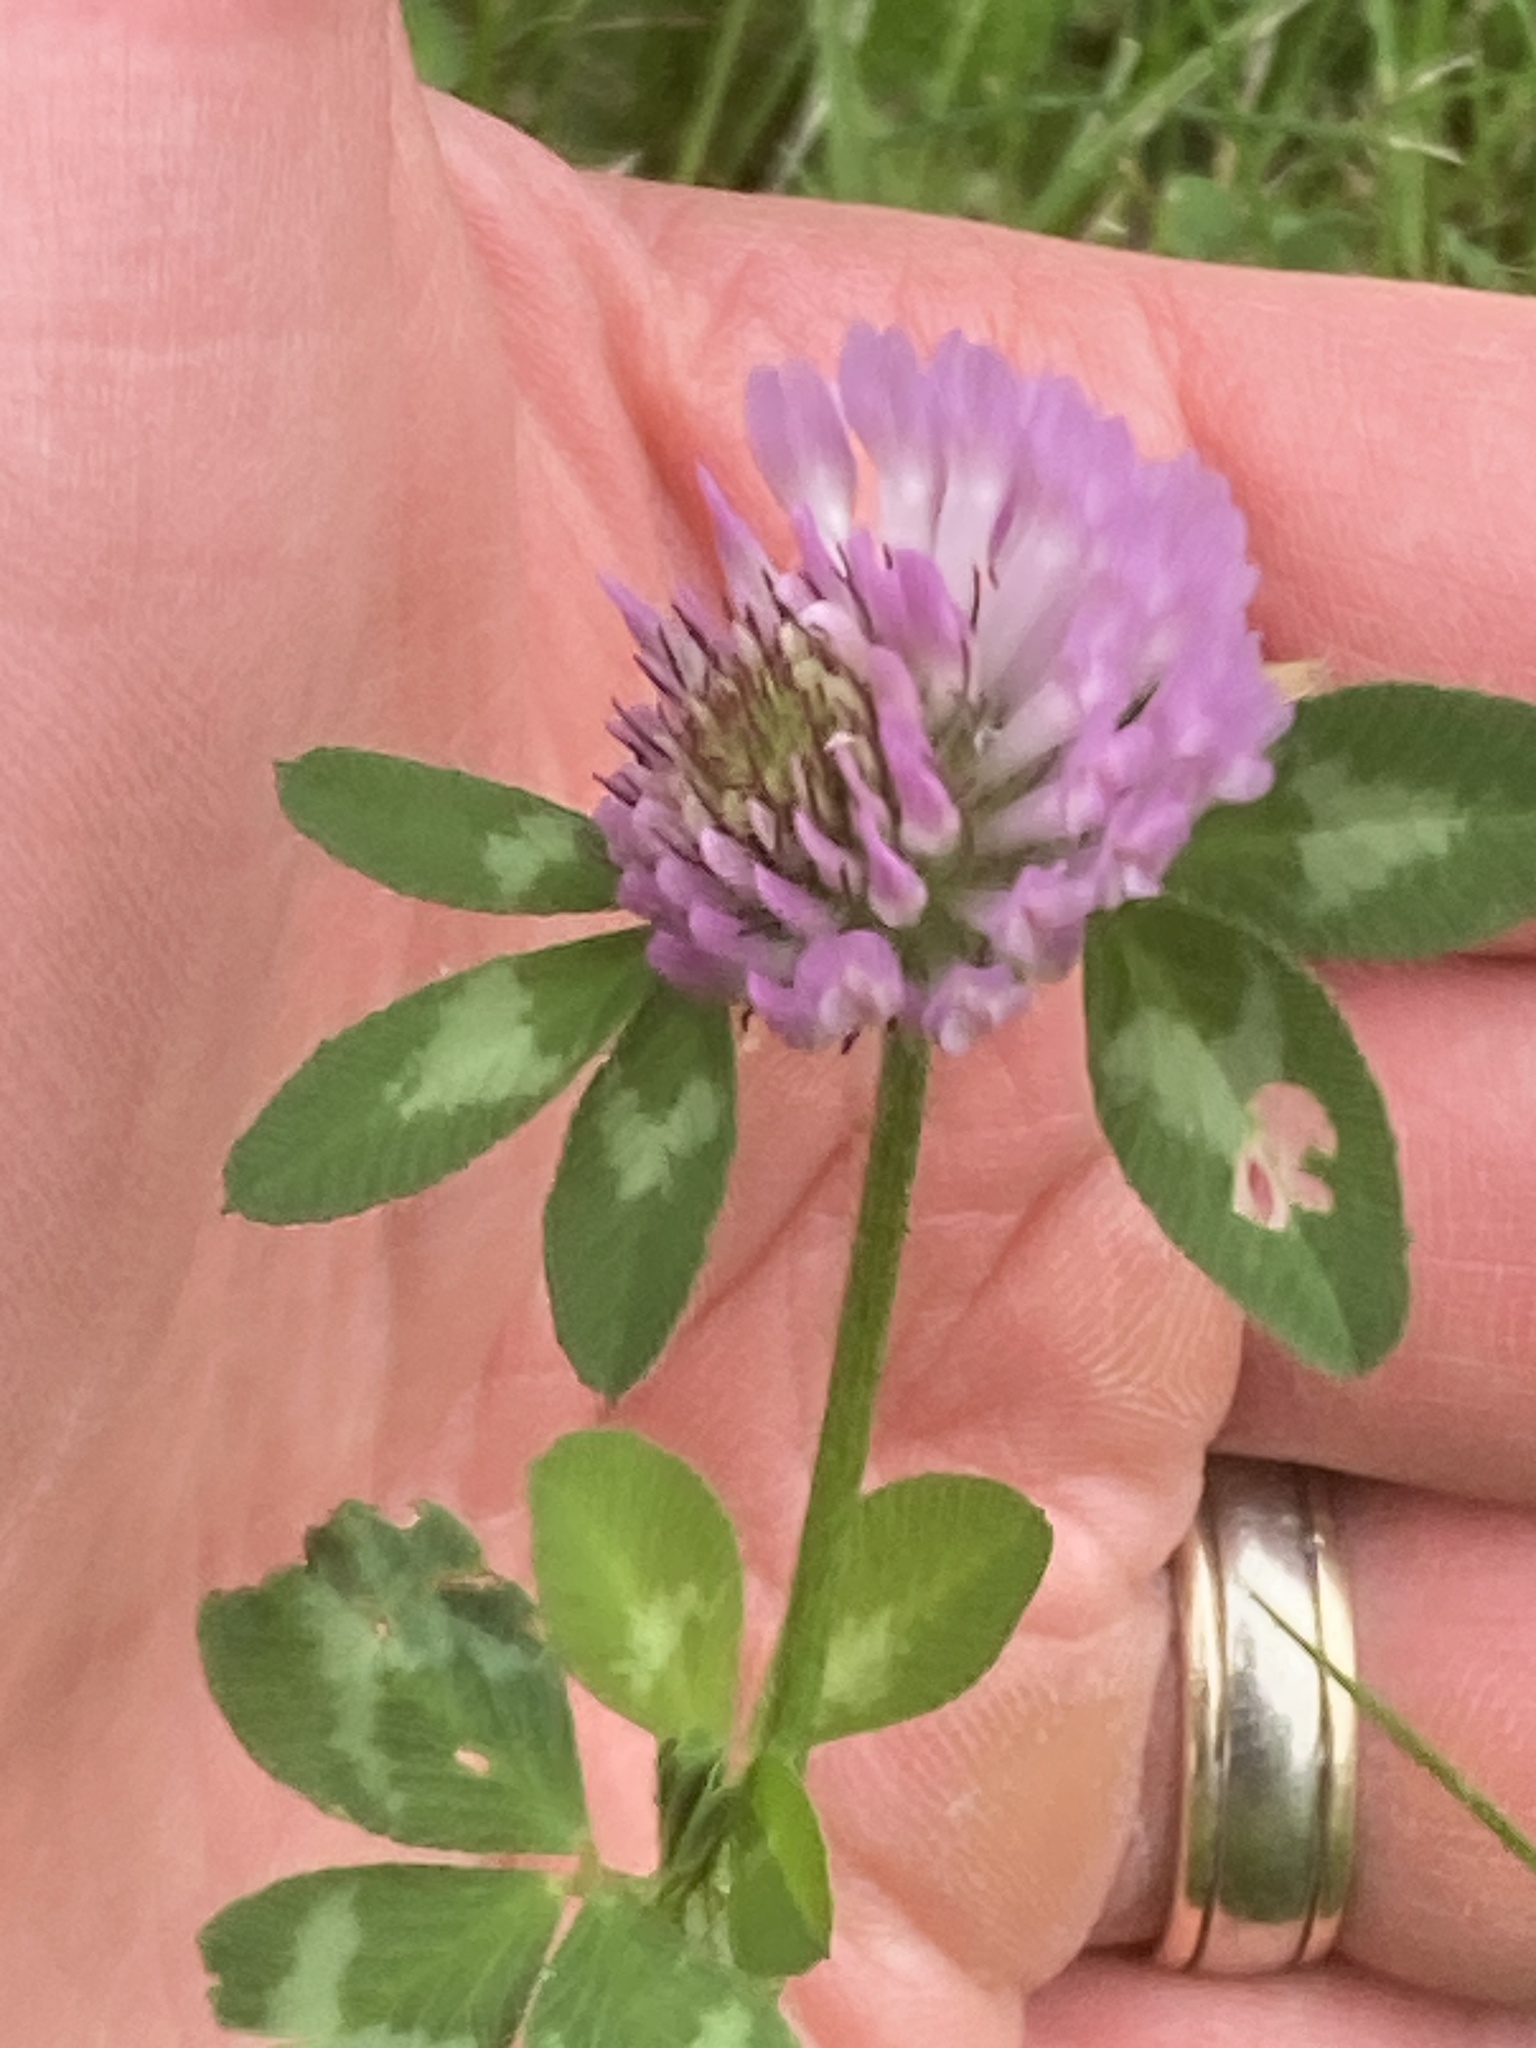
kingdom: Plantae
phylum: Tracheophyta
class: Magnoliopsida
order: Fabales
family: Fabaceae
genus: Trifolium
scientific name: Trifolium pratense
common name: Red clover
